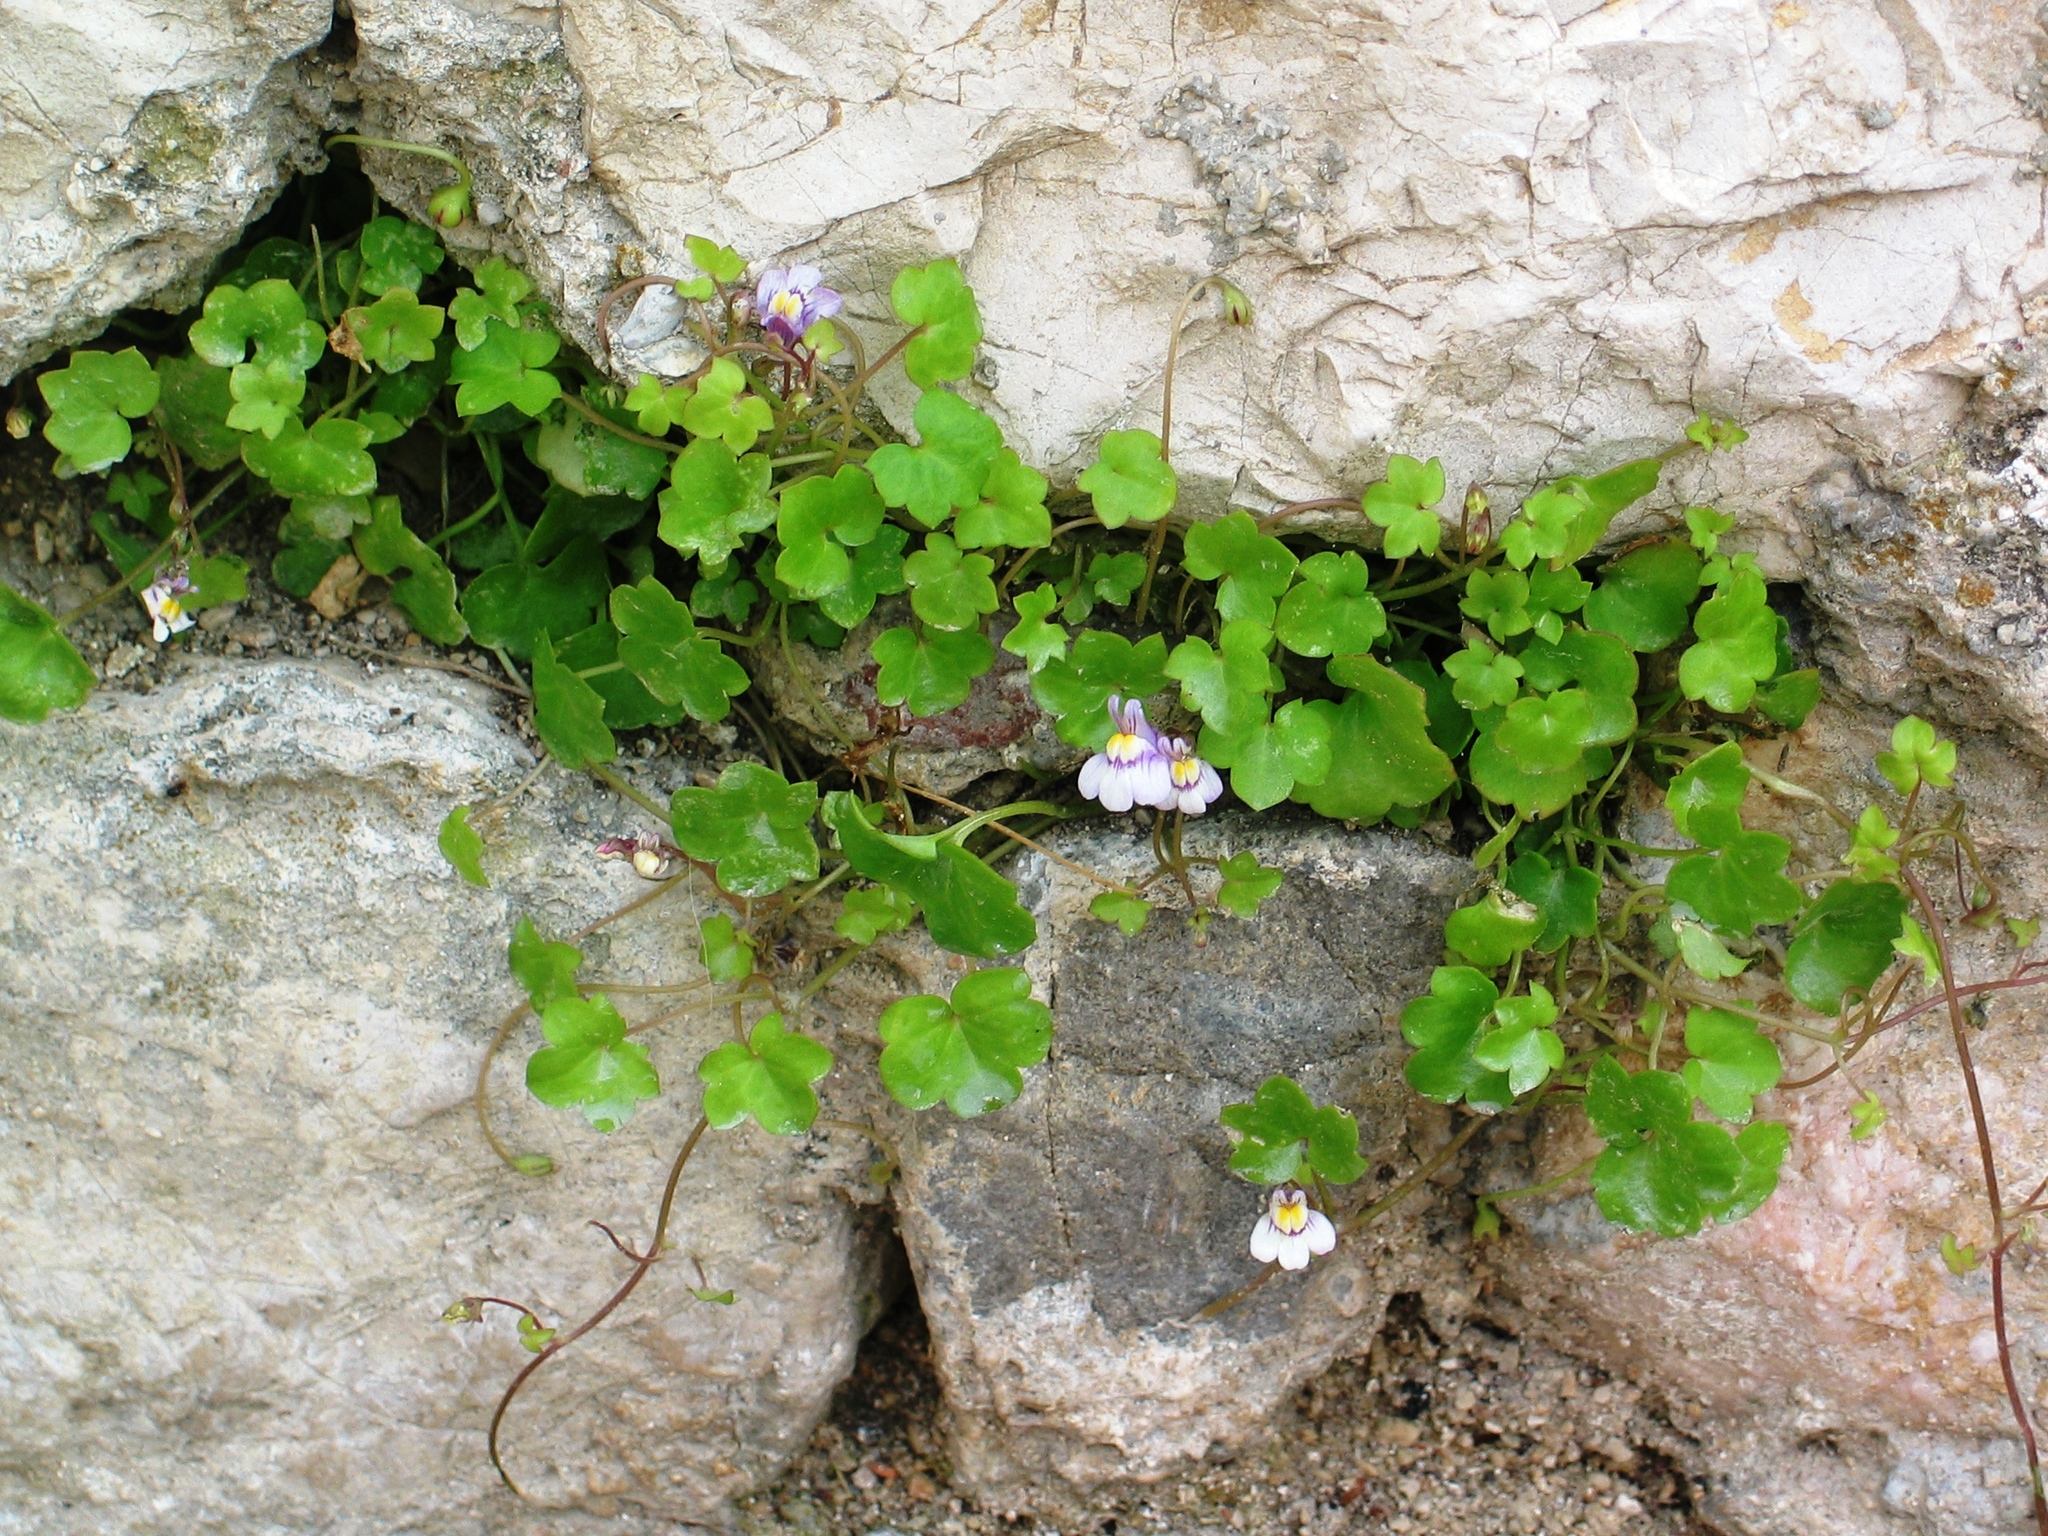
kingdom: Plantae
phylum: Tracheophyta
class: Magnoliopsida
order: Lamiales
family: Plantaginaceae
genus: Cymbalaria
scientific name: Cymbalaria muralis
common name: Ivy-leaved toadflax
